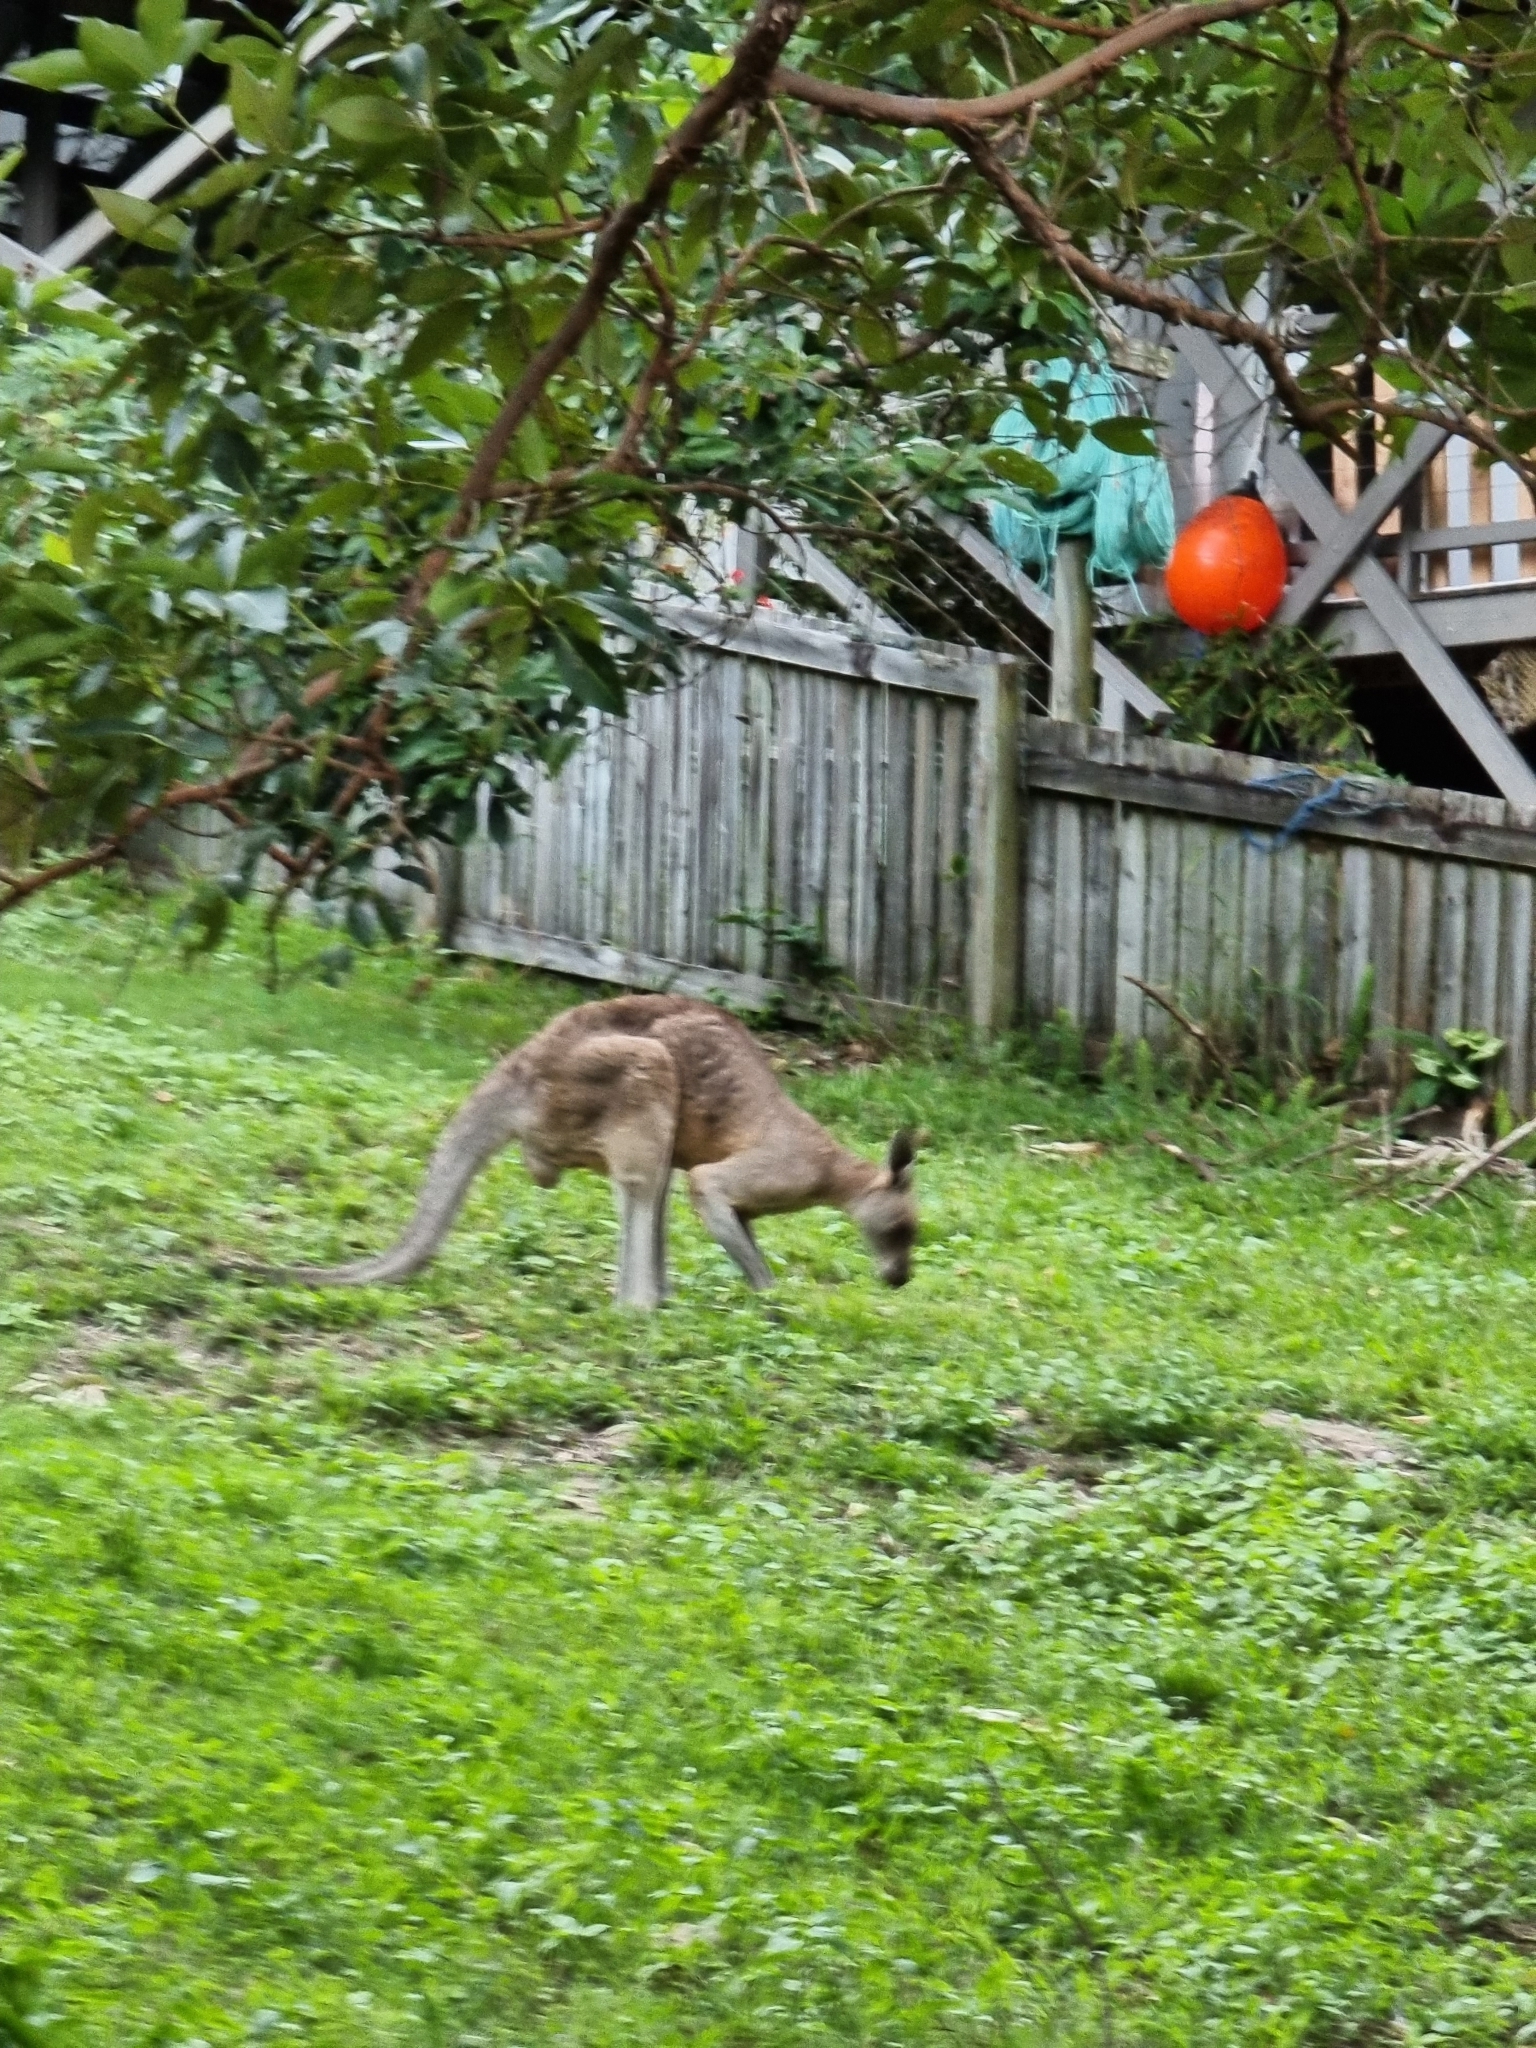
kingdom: Animalia
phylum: Chordata
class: Mammalia
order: Diprotodontia
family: Macropodidae
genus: Macropus
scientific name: Macropus giganteus
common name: Eastern grey kangaroo
